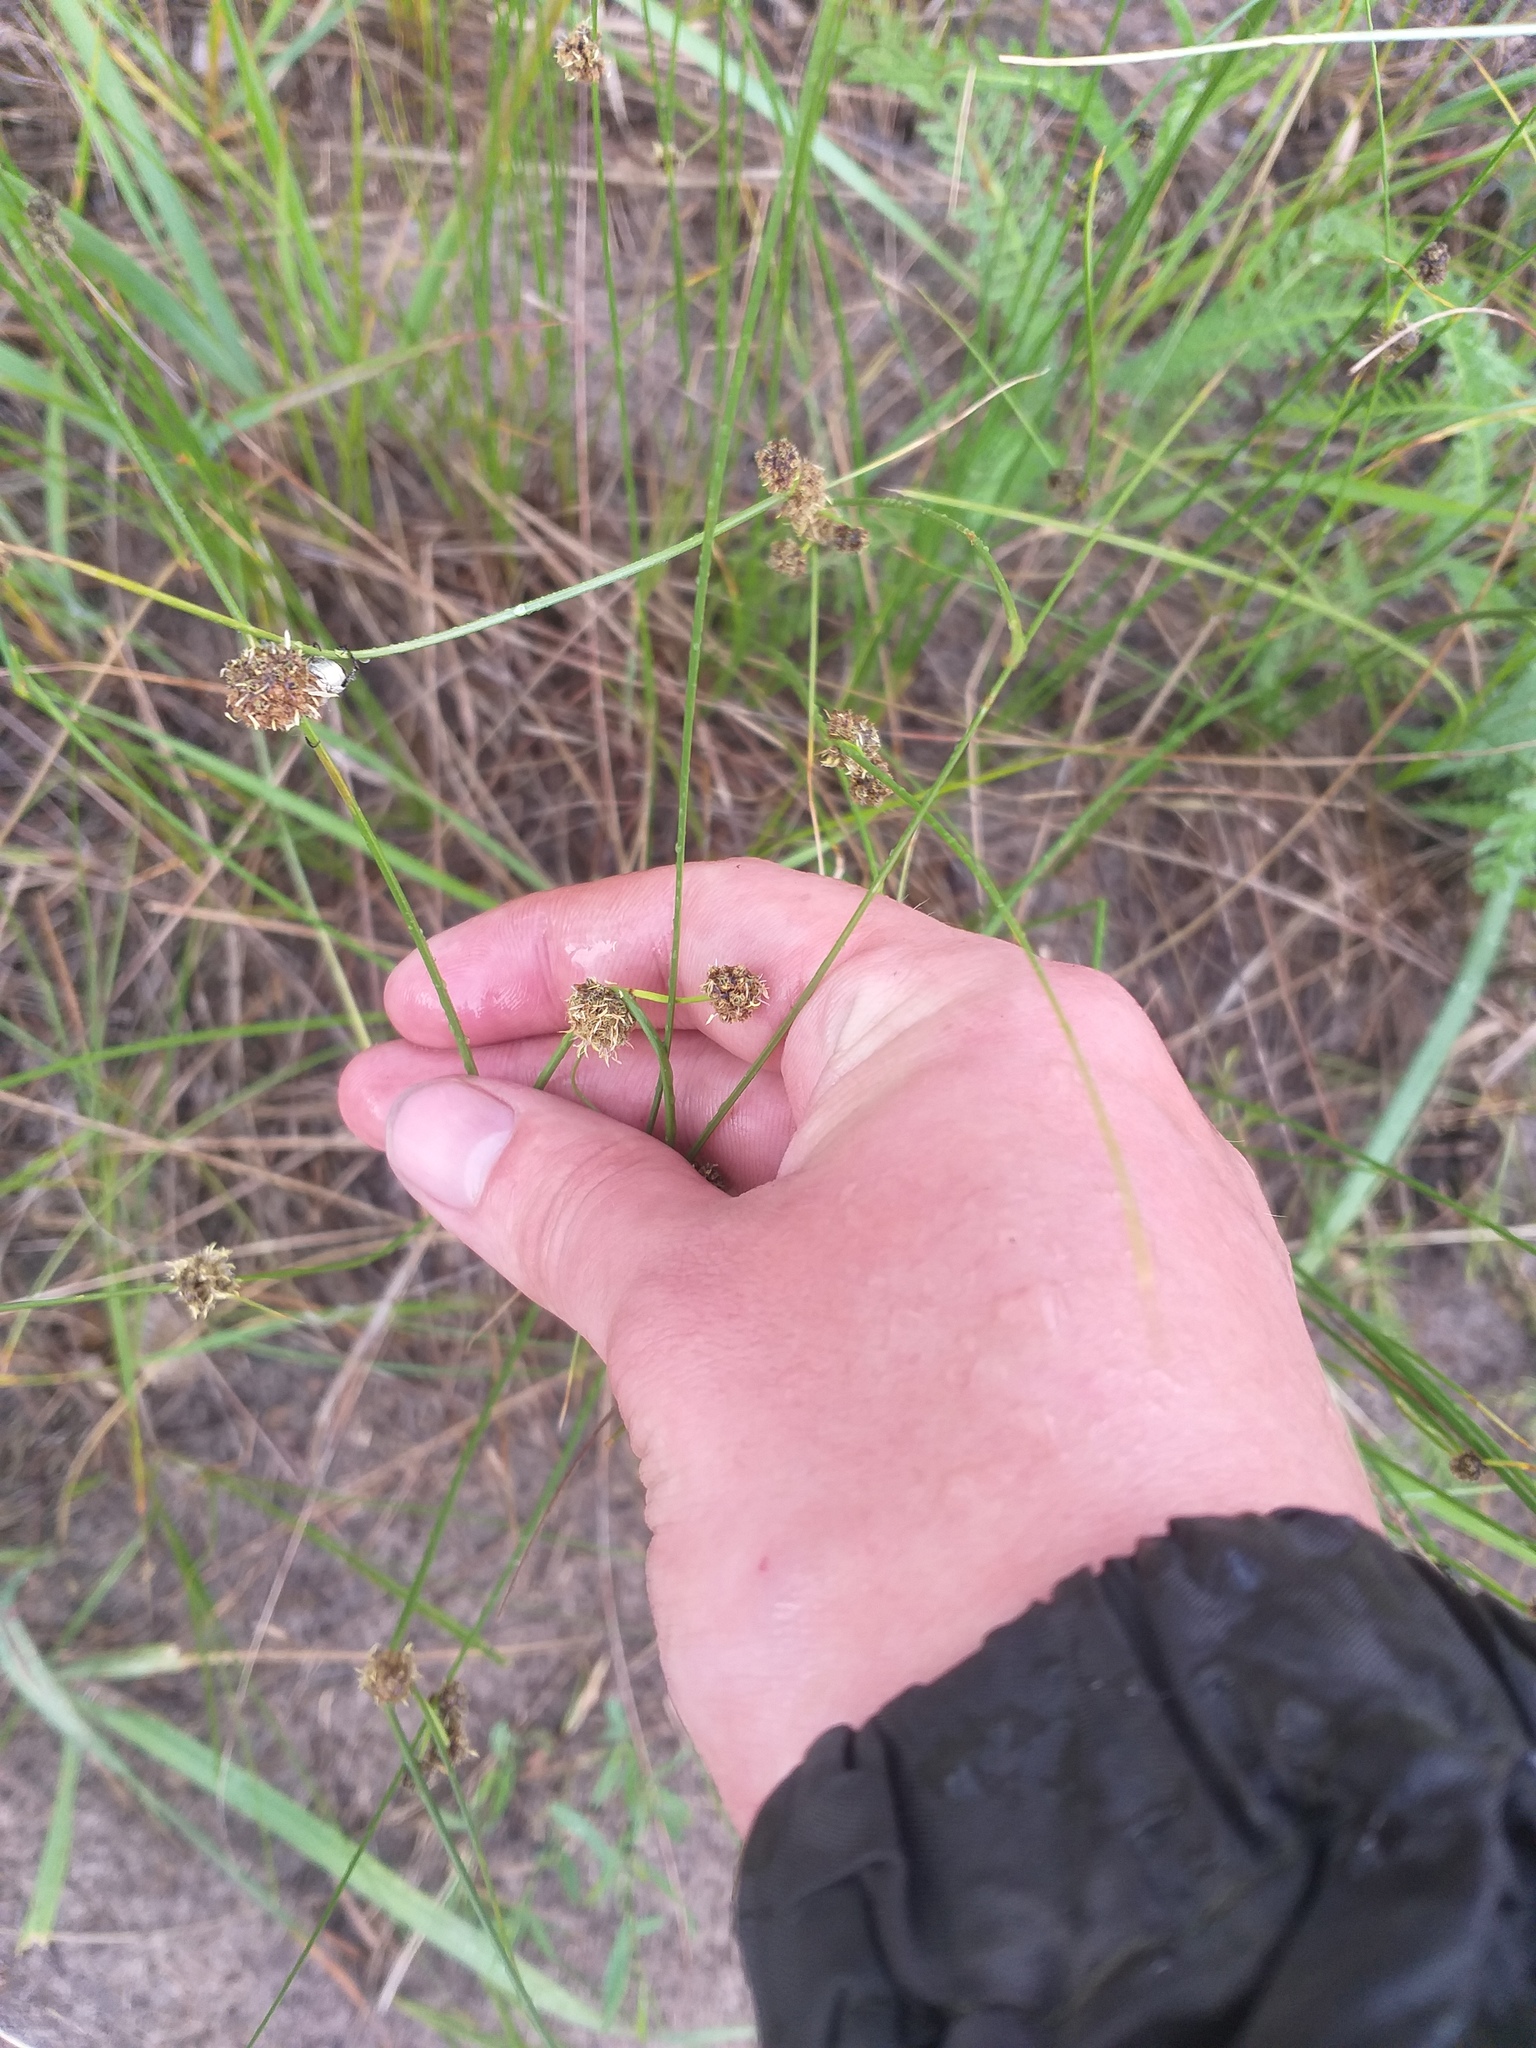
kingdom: Plantae
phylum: Tracheophyta
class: Liliopsida
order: Poales
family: Cyperaceae
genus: Scirpoides
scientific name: Scirpoides holoschoenus
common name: Round-headed club-rush
